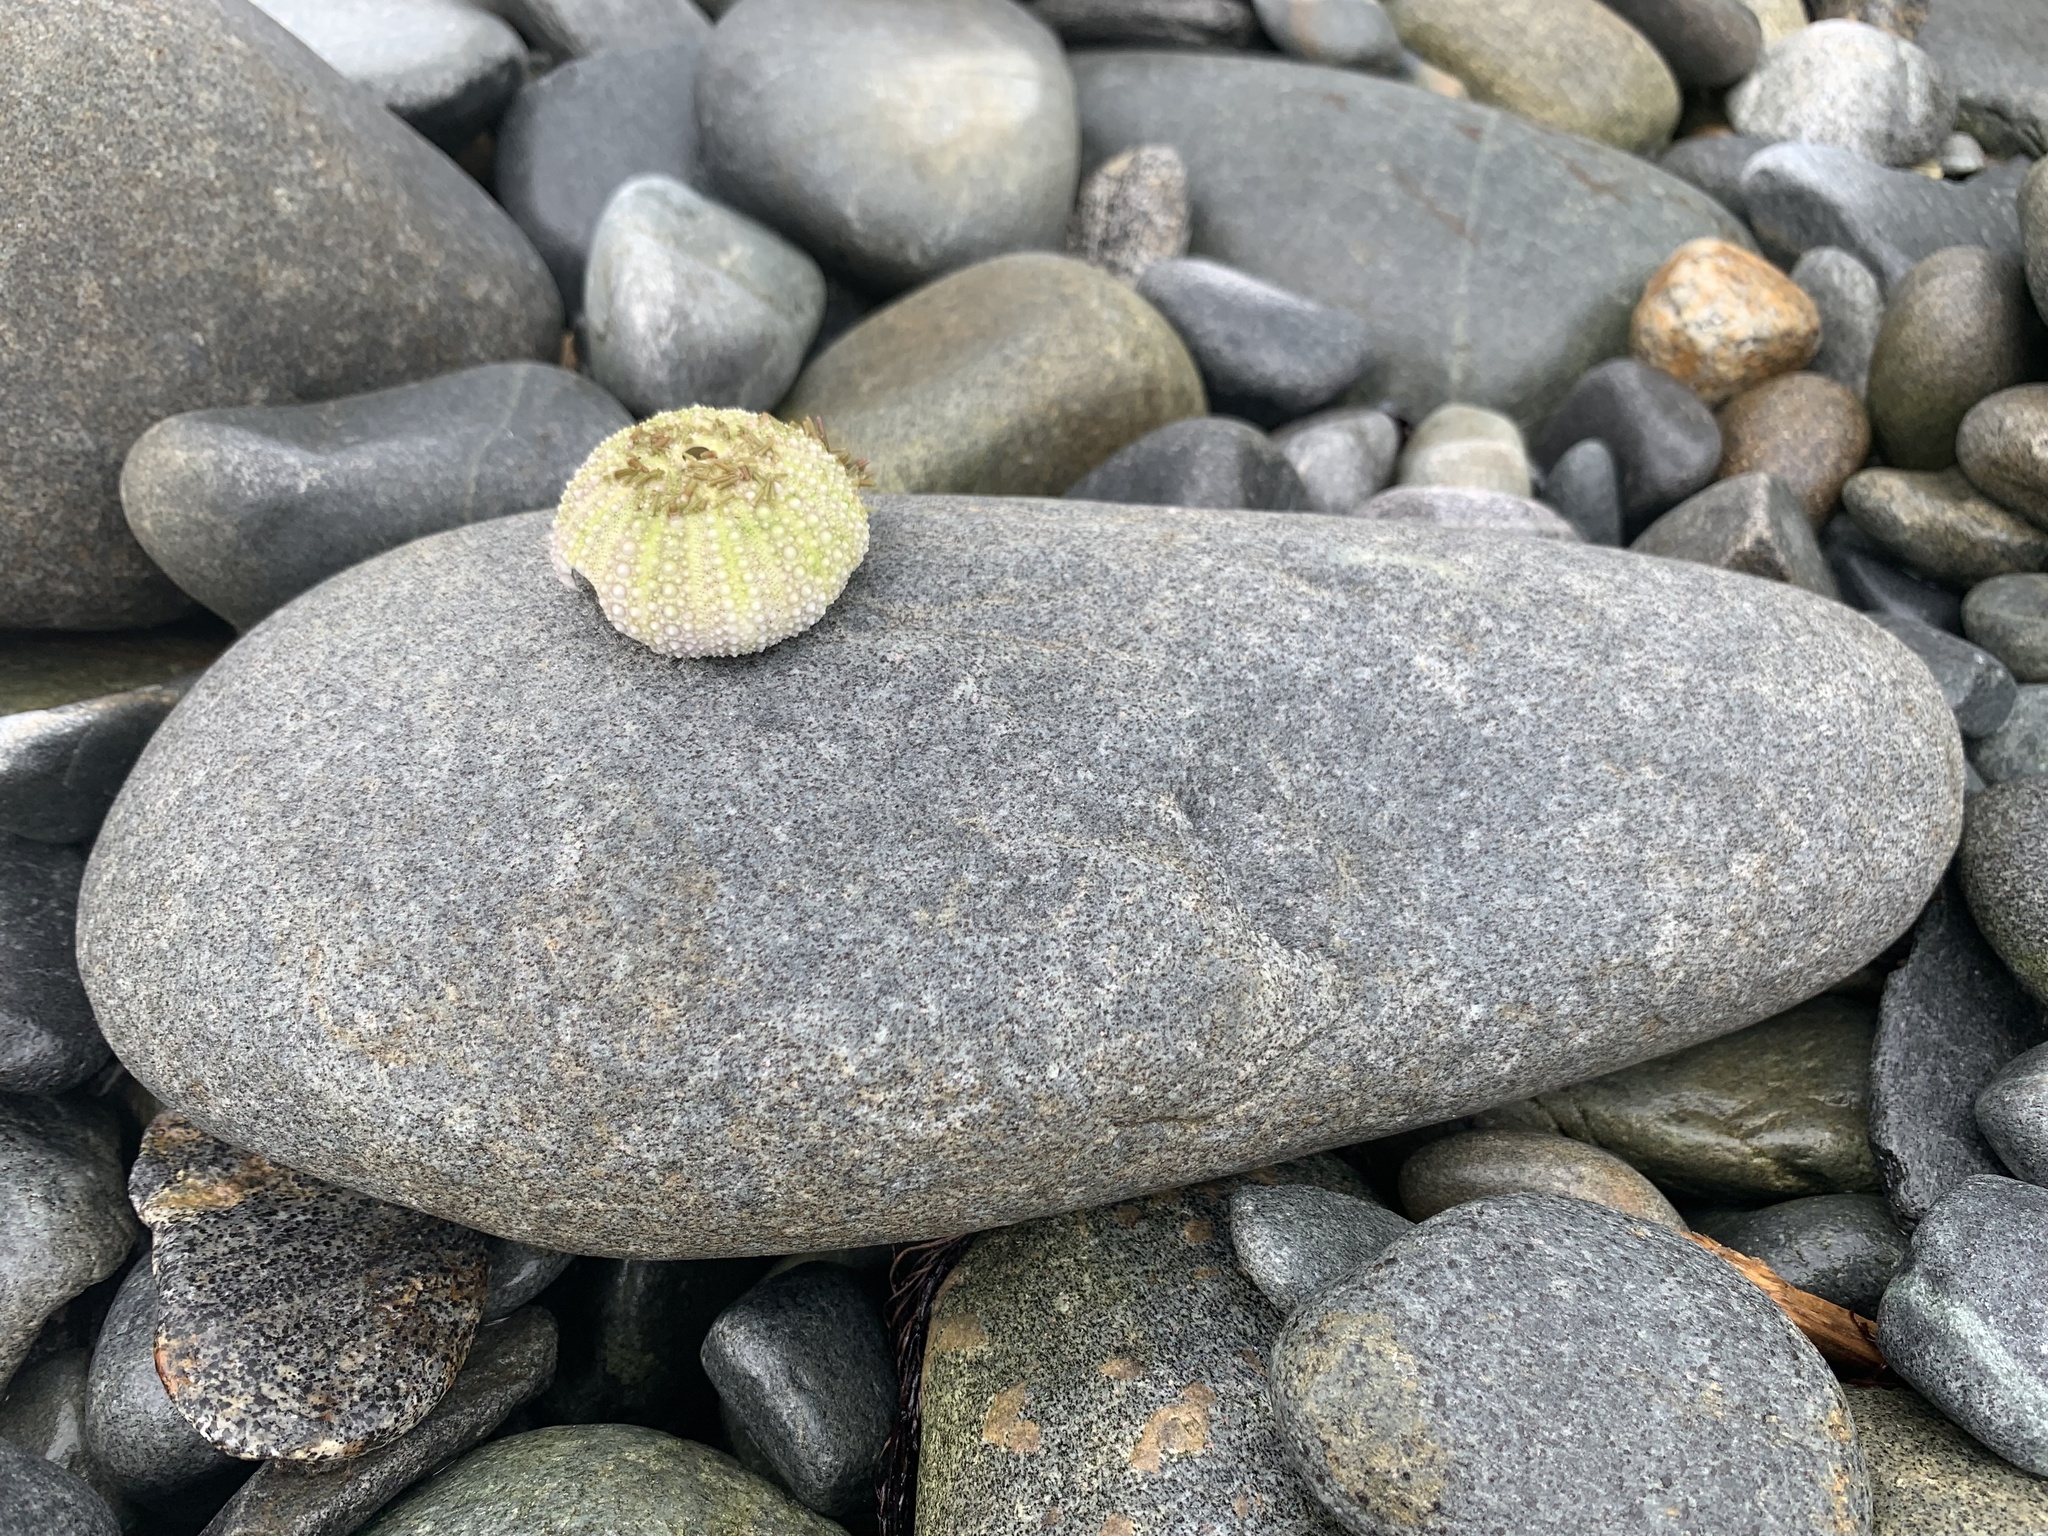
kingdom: Animalia
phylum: Echinodermata
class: Echinoidea
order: Camarodonta
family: Strongylocentrotidae
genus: Strongylocentrotus
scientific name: Strongylocentrotus droebachiensis
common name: Northern sea urchin
